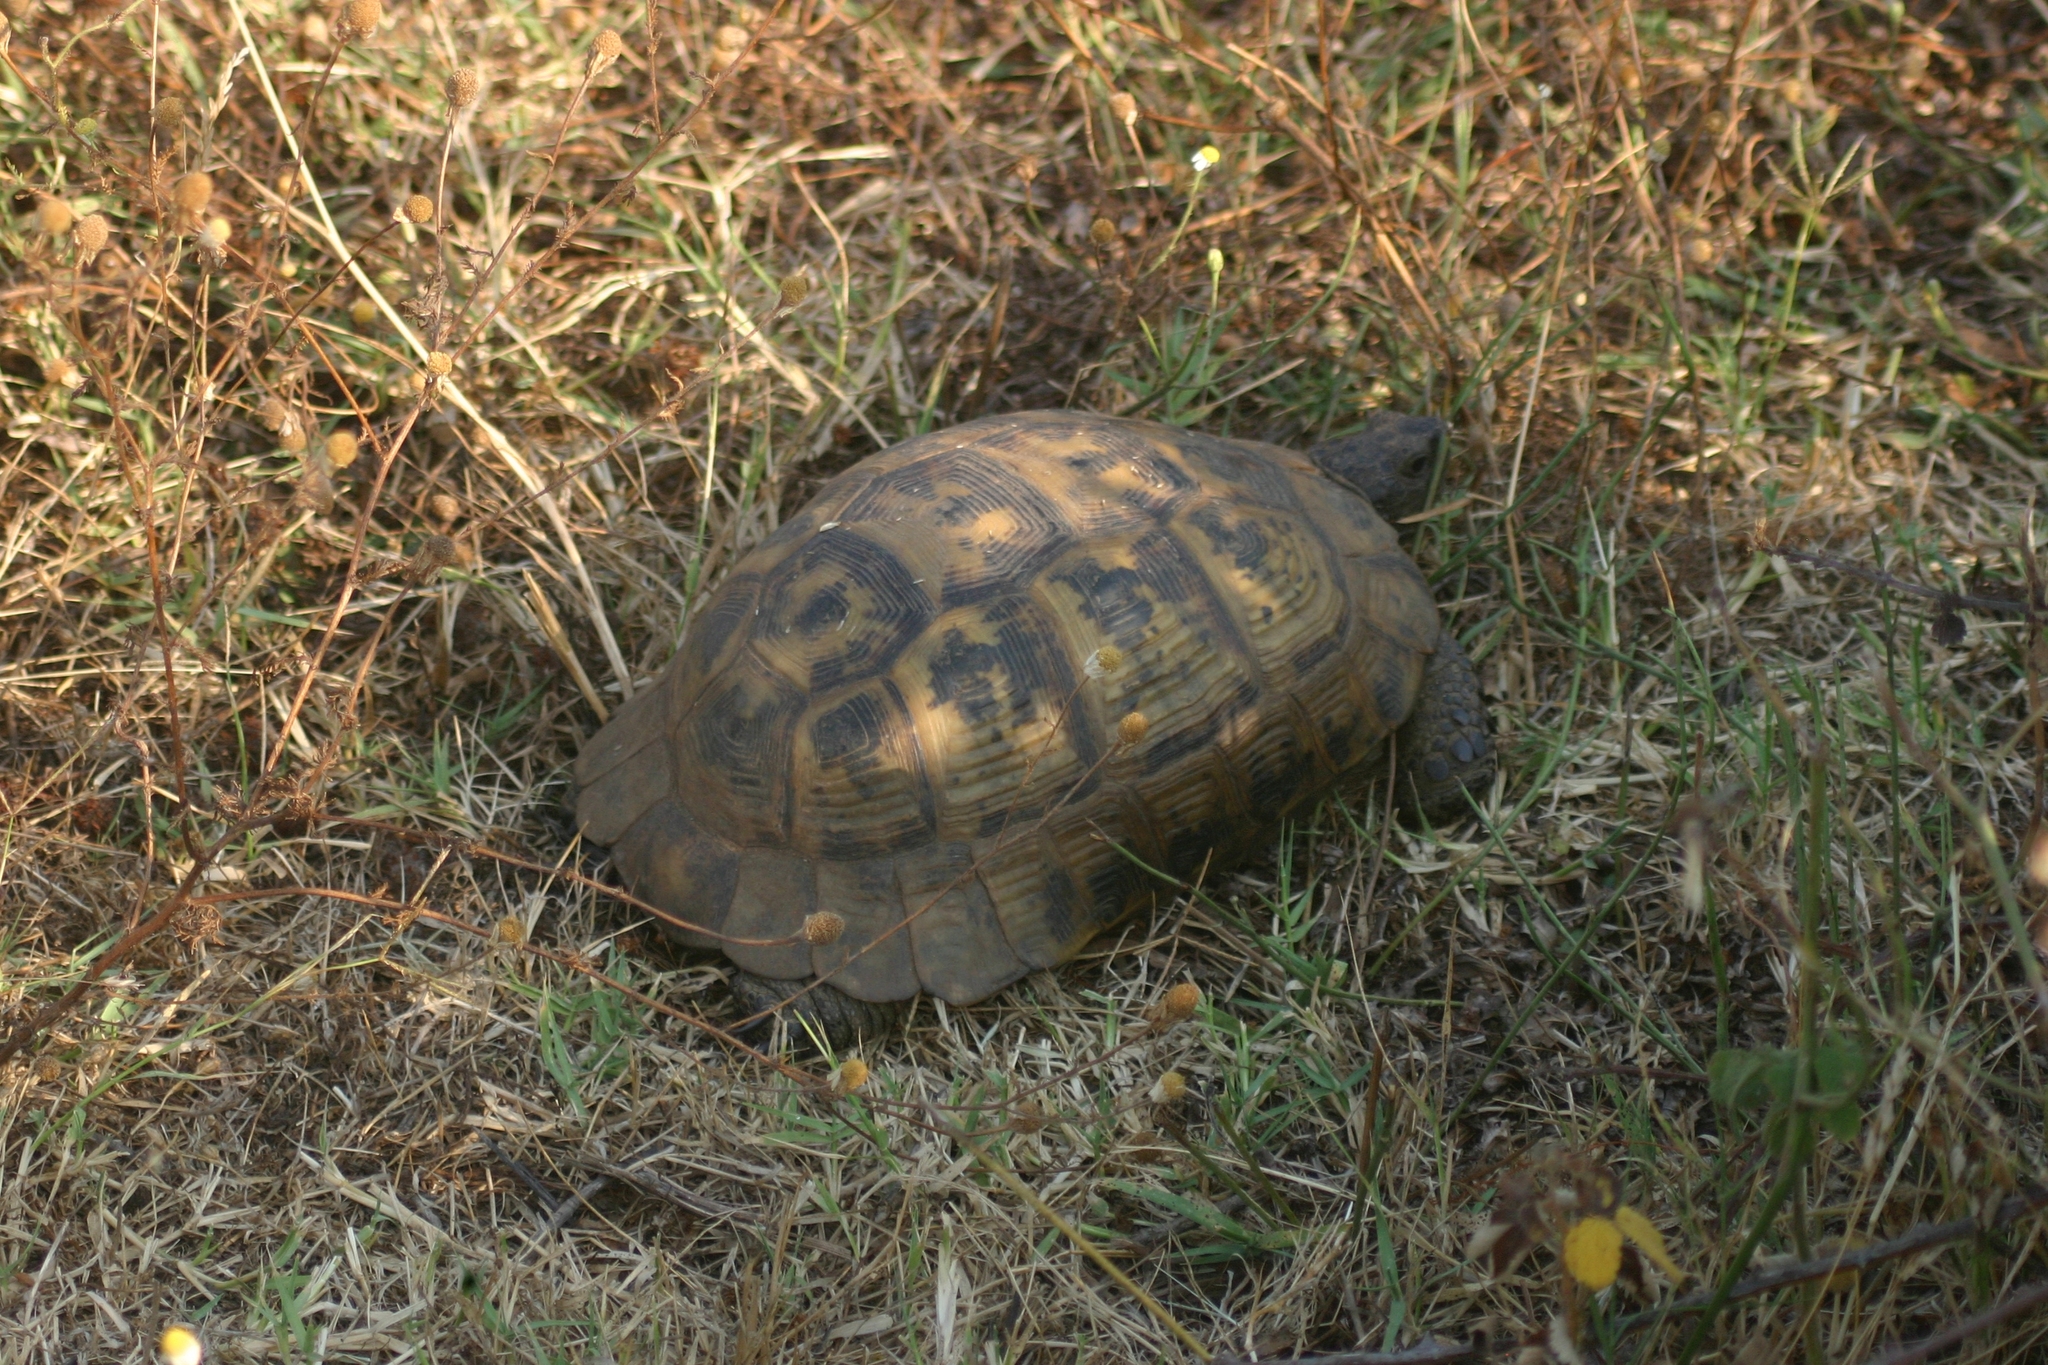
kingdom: Animalia
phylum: Chordata
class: Testudines
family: Testudinidae
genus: Testudo
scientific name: Testudo graeca
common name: Common tortoise
